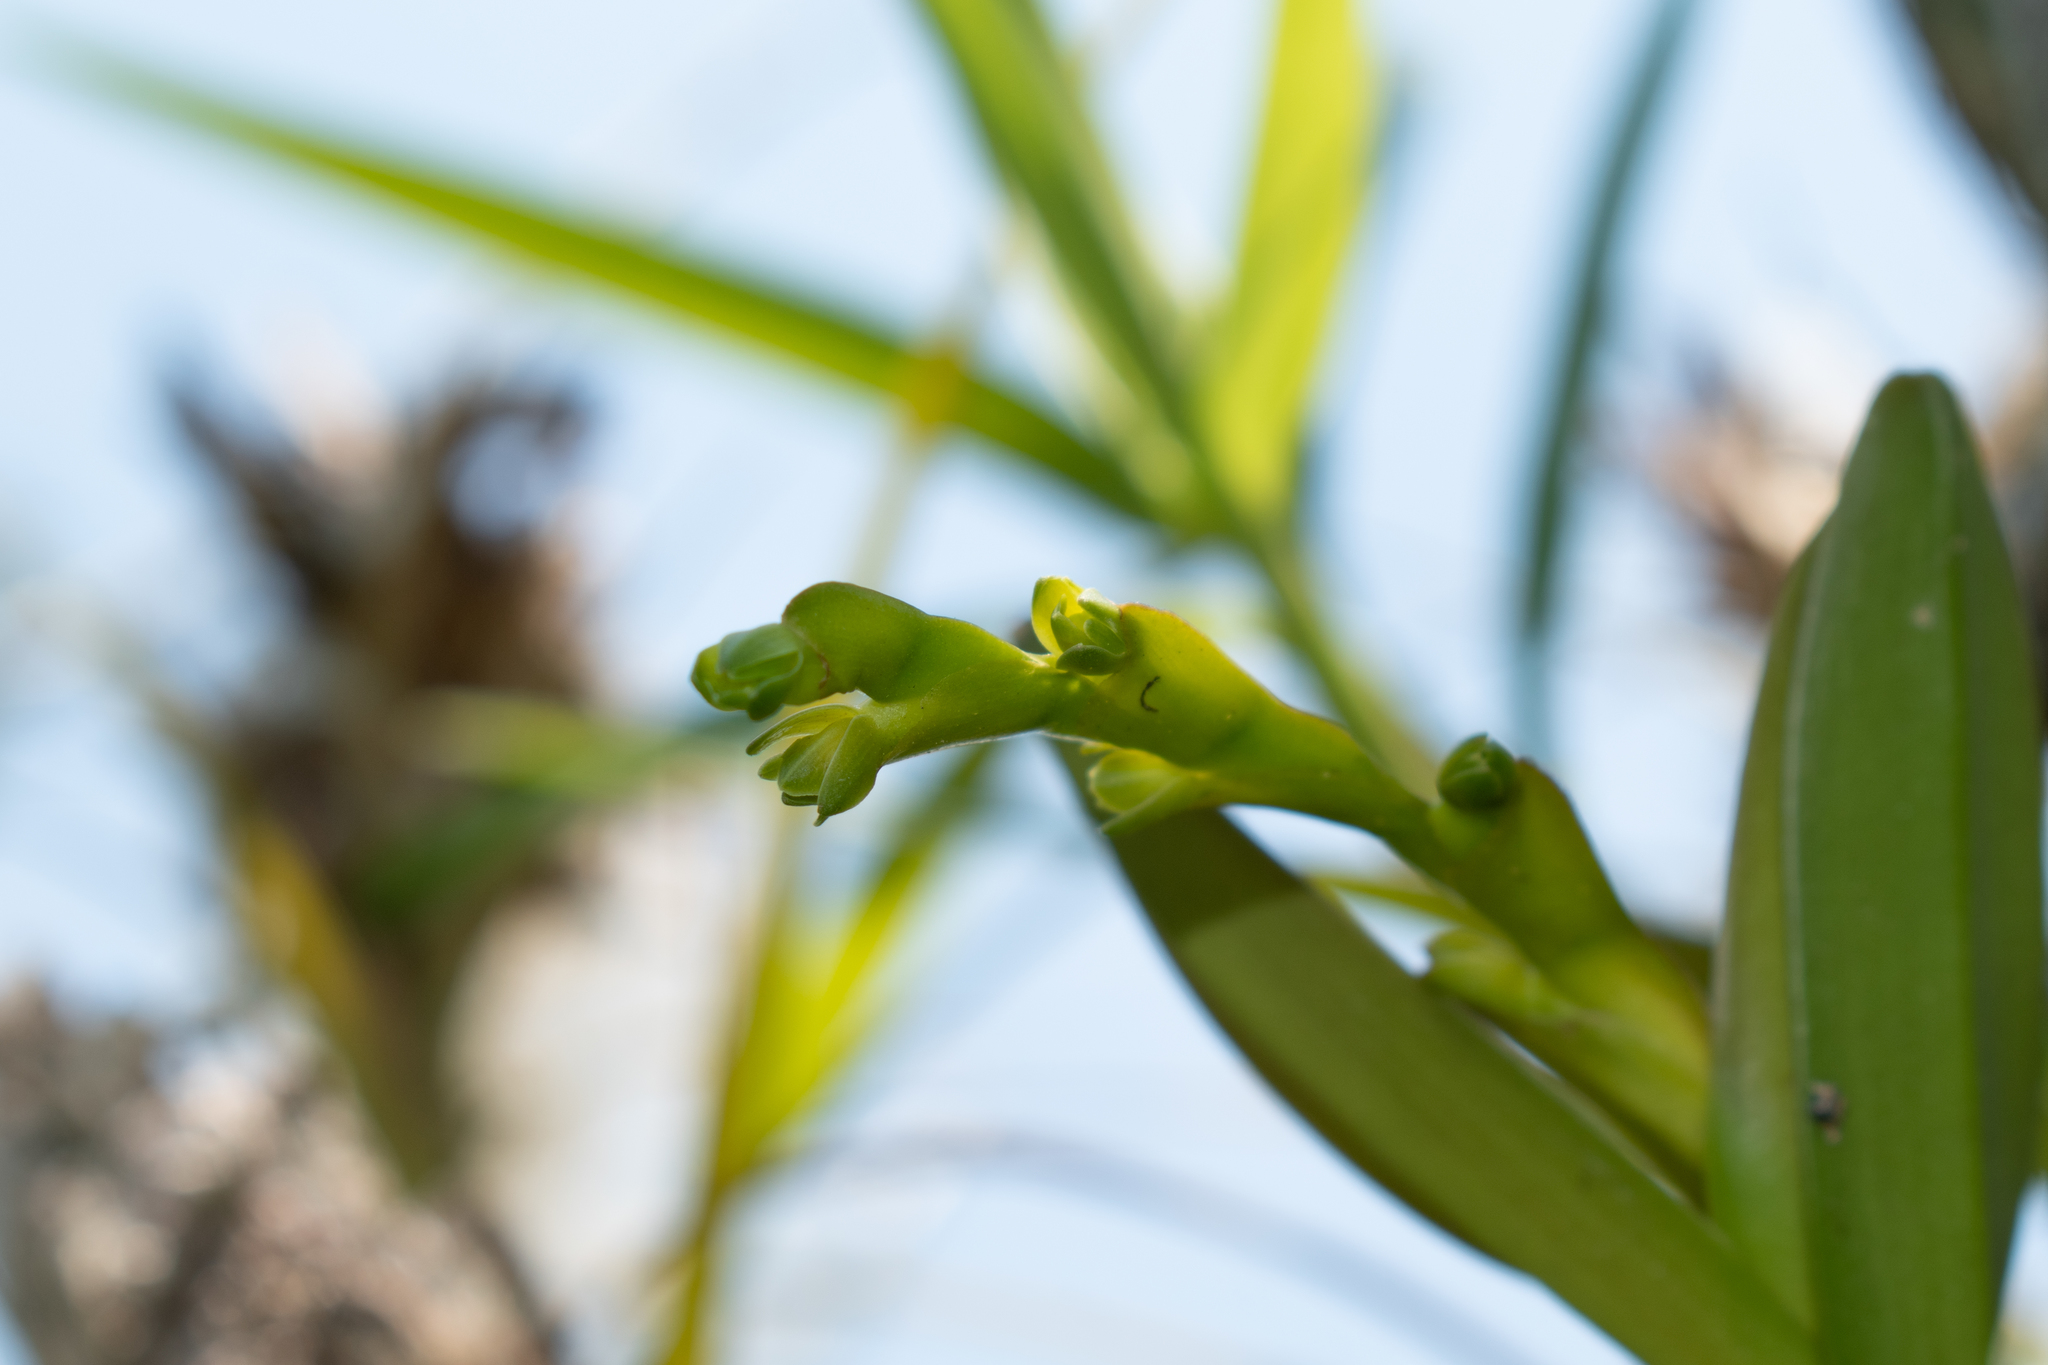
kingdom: Plantae
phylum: Tracheophyta
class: Liliopsida
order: Asparagales
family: Orchidaceae
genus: Epidendrum
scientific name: Epidendrum rigidum
